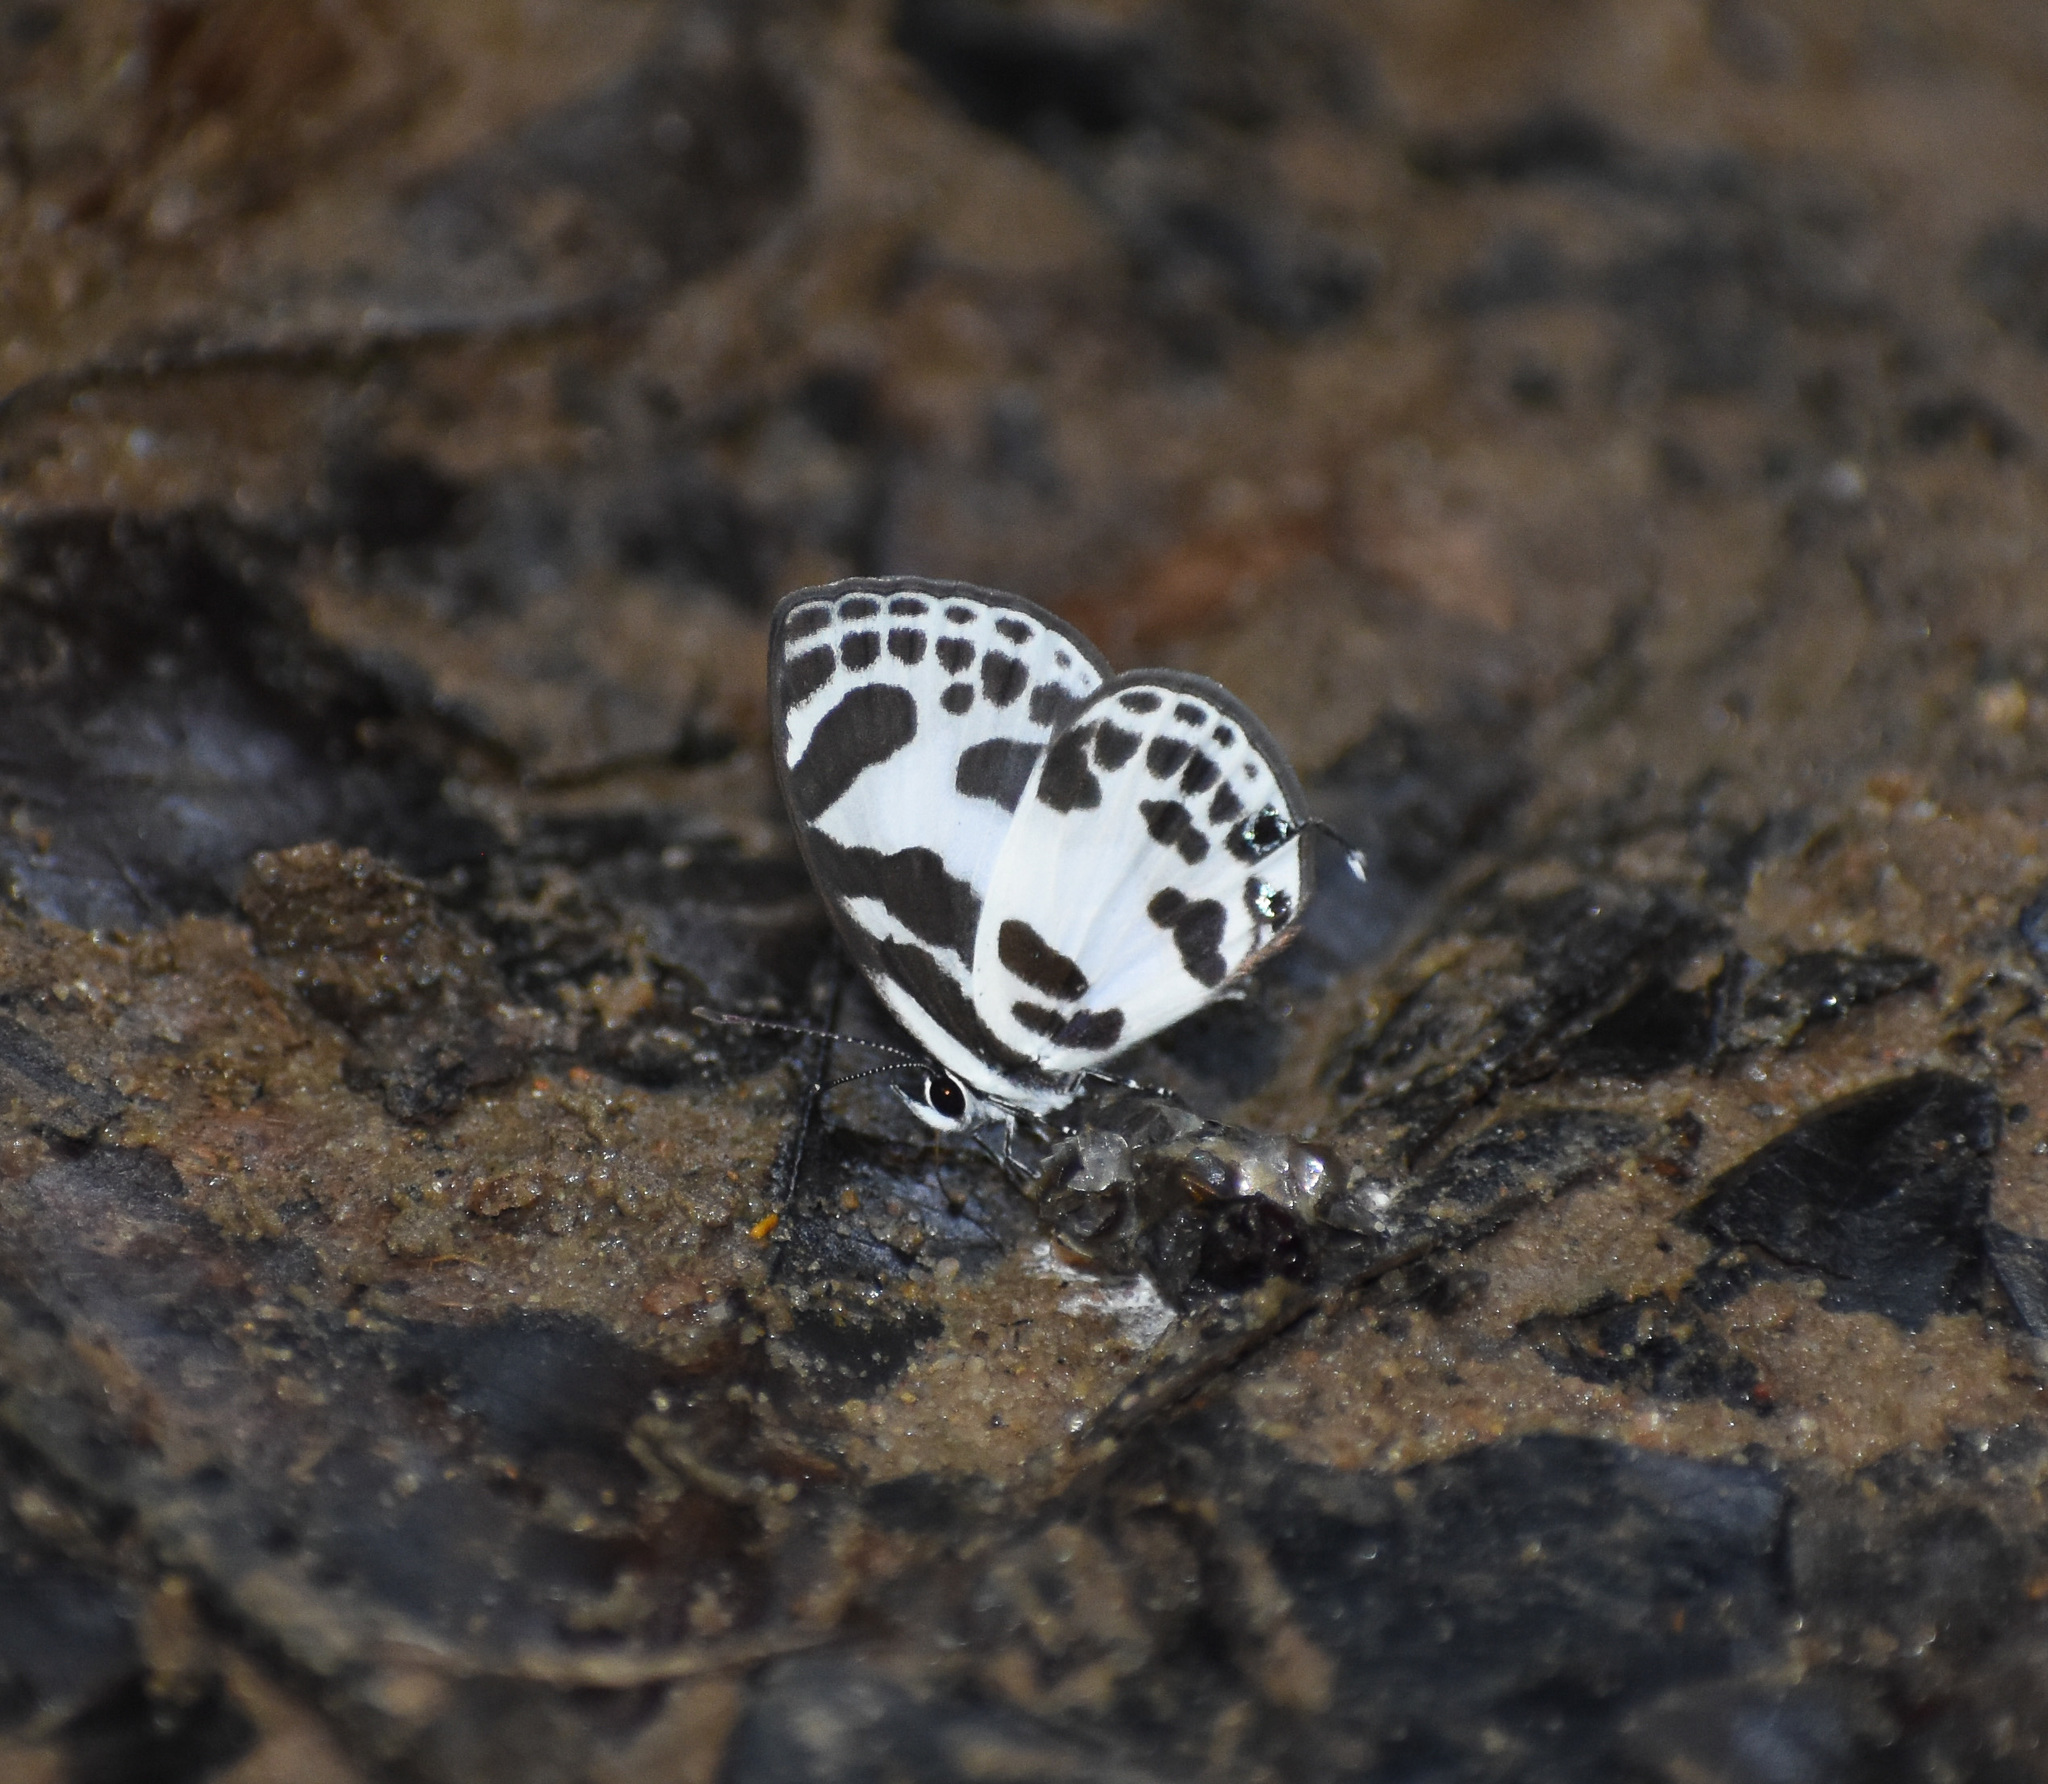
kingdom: Animalia
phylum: Arthropoda
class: Insecta
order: Lepidoptera
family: Lycaenidae
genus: Discolampa
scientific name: Discolampa ethion
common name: Banded blue pierrot
